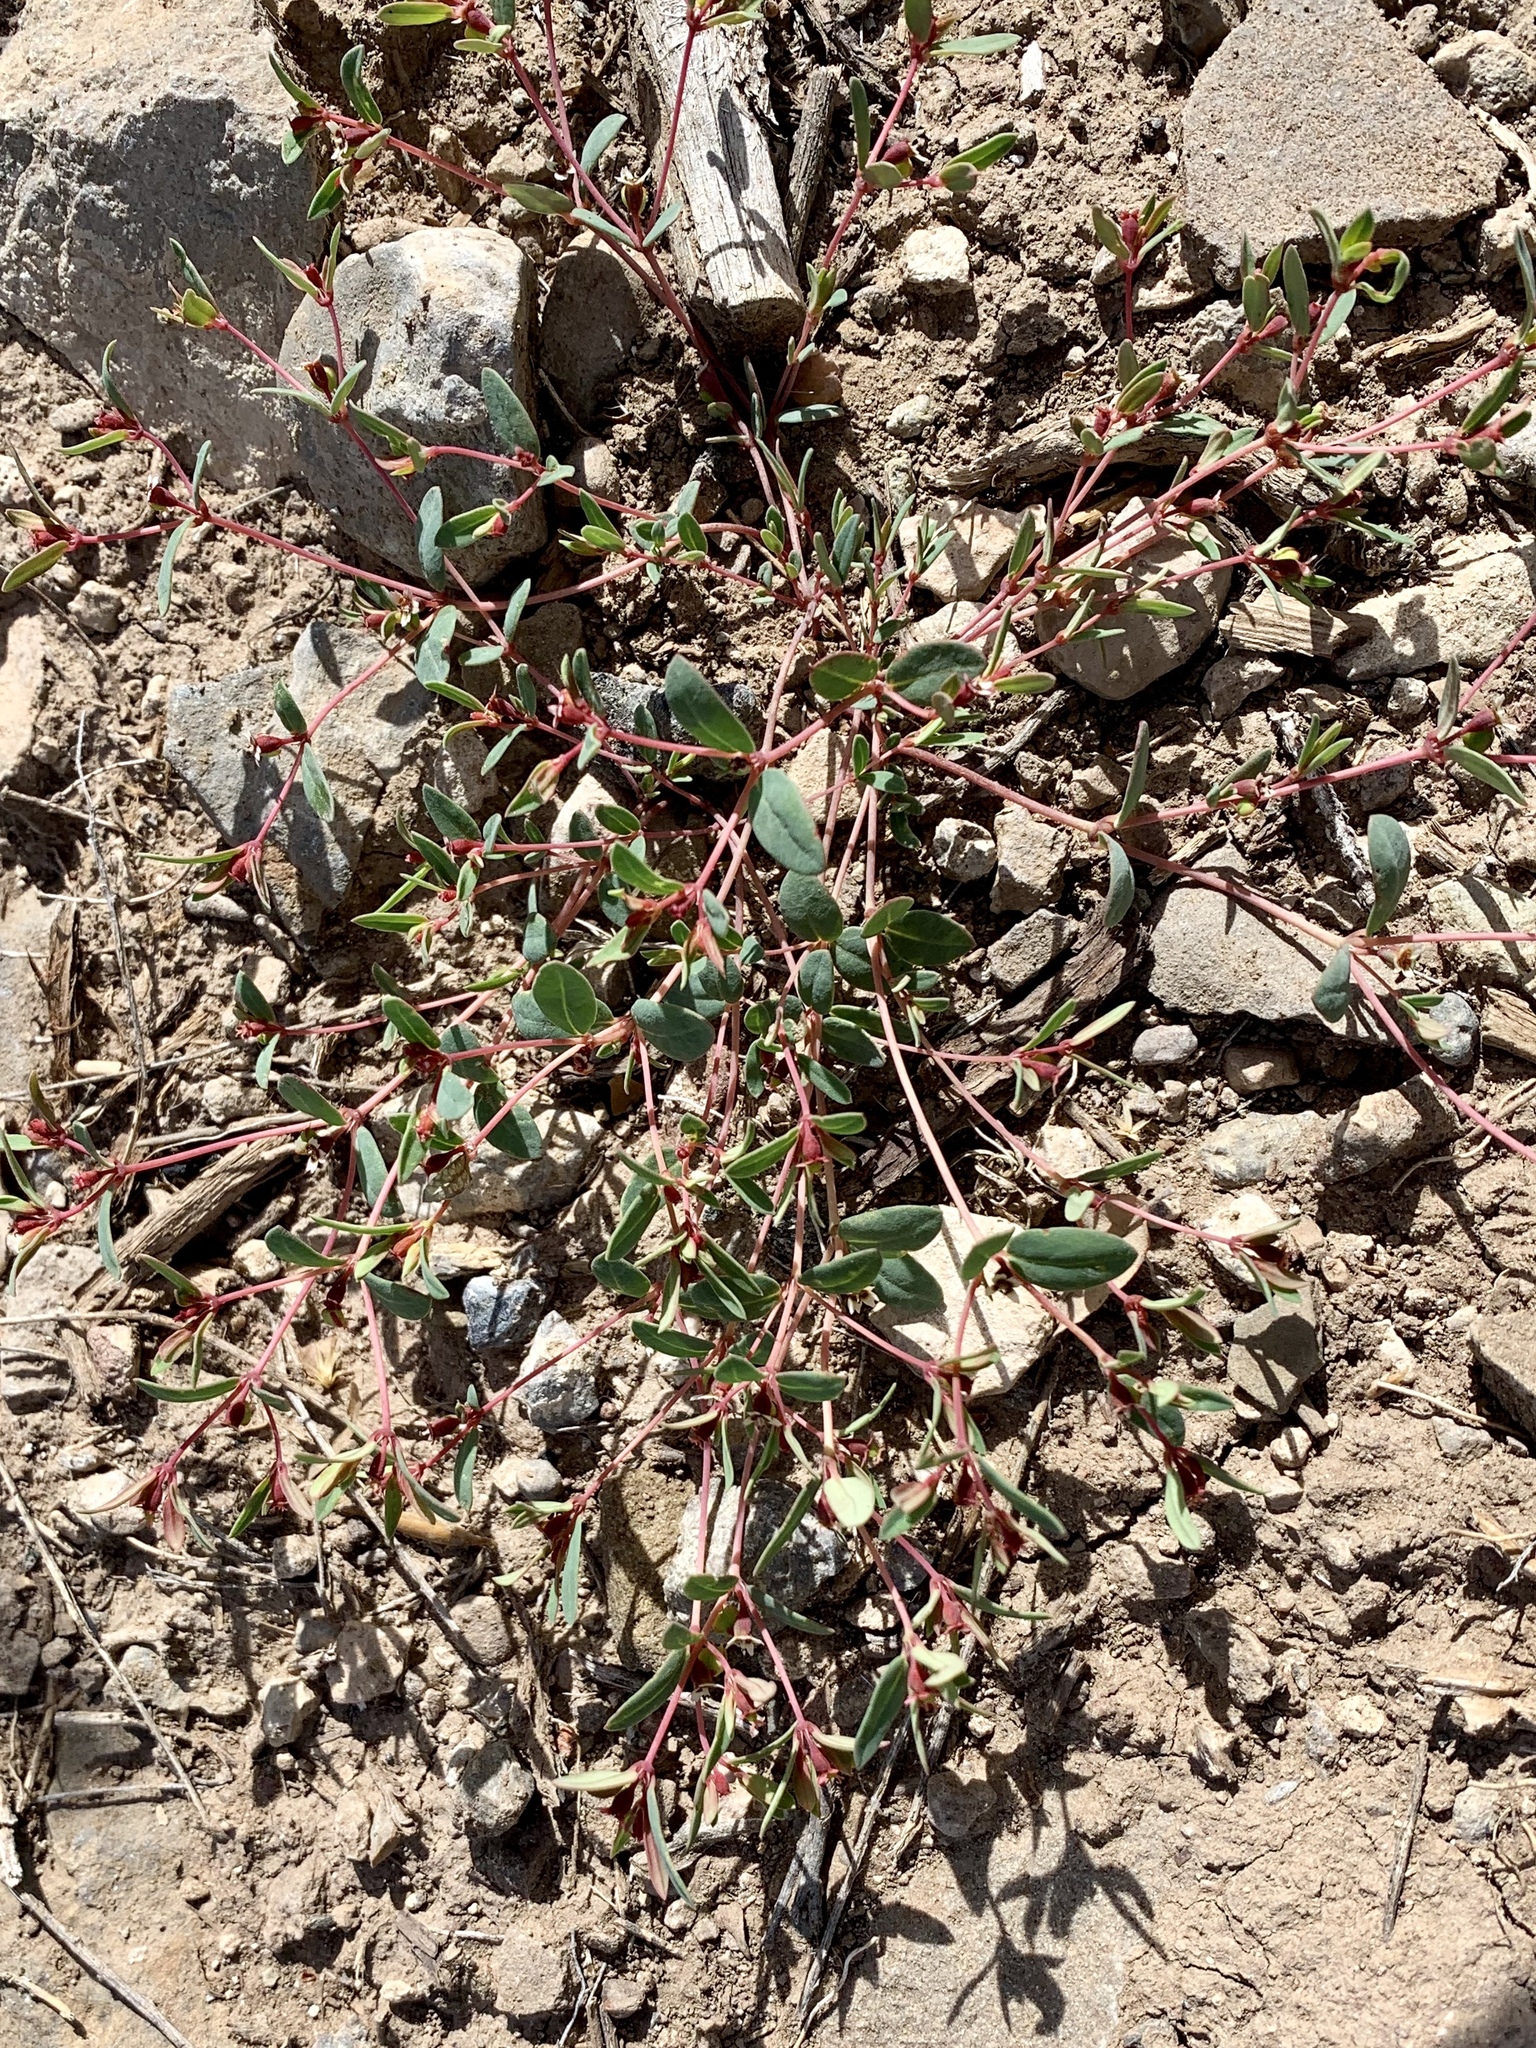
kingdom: Plantae
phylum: Tracheophyta
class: Magnoliopsida
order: Malpighiales
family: Euphorbiaceae
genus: Euphorbia
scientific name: Euphorbia fendleri
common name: Fendler's euphorbia
